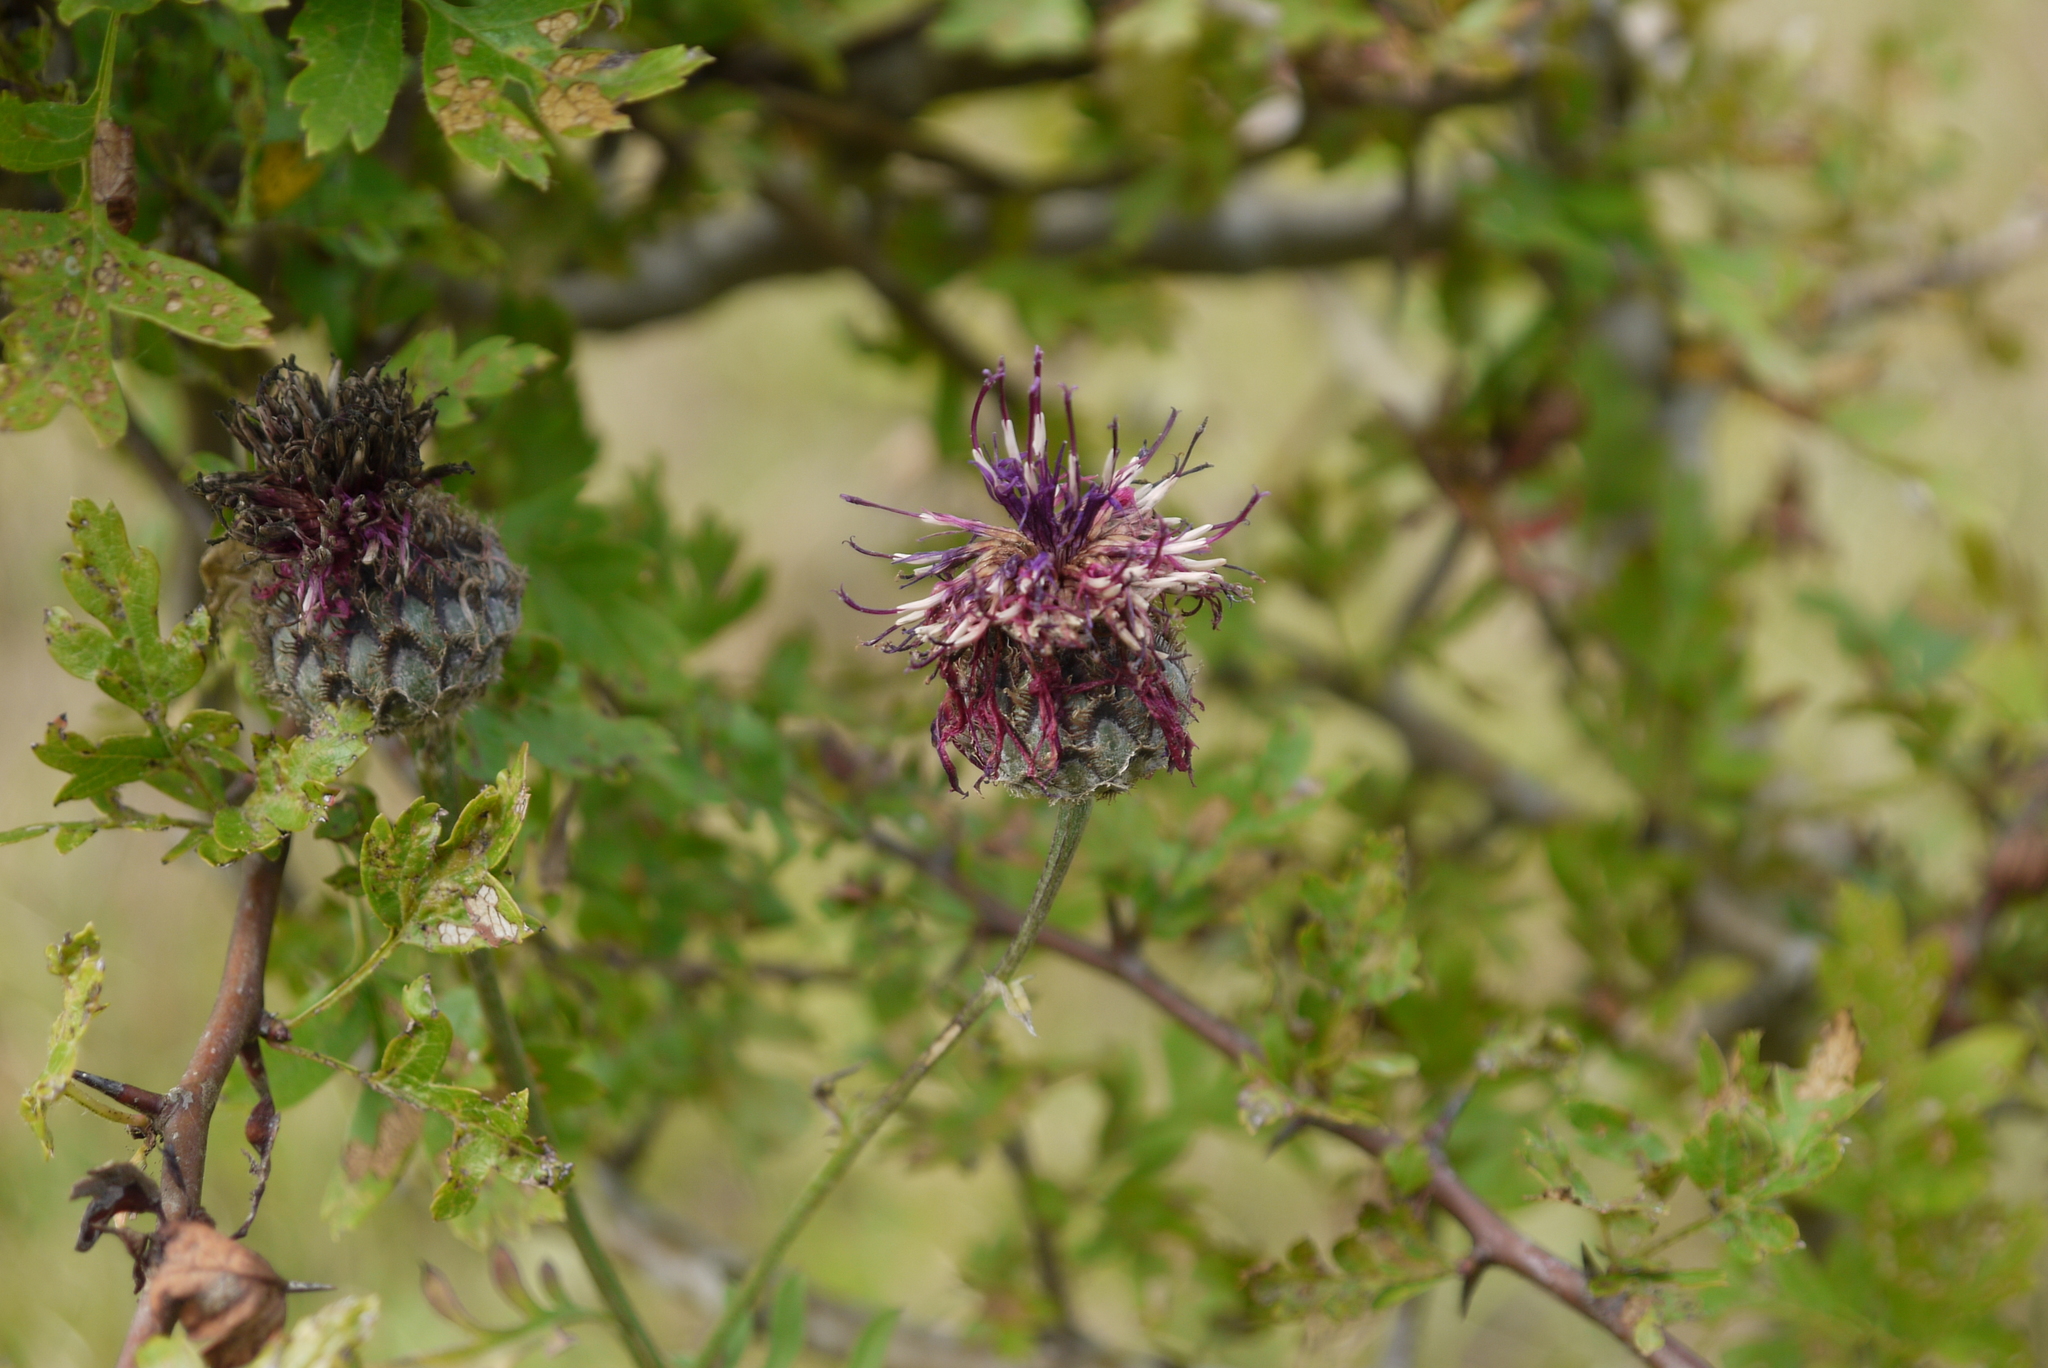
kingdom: Plantae
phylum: Tracheophyta
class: Magnoliopsida
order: Asterales
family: Asteraceae
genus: Centaurea
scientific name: Centaurea scabiosa
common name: Greater knapweed
